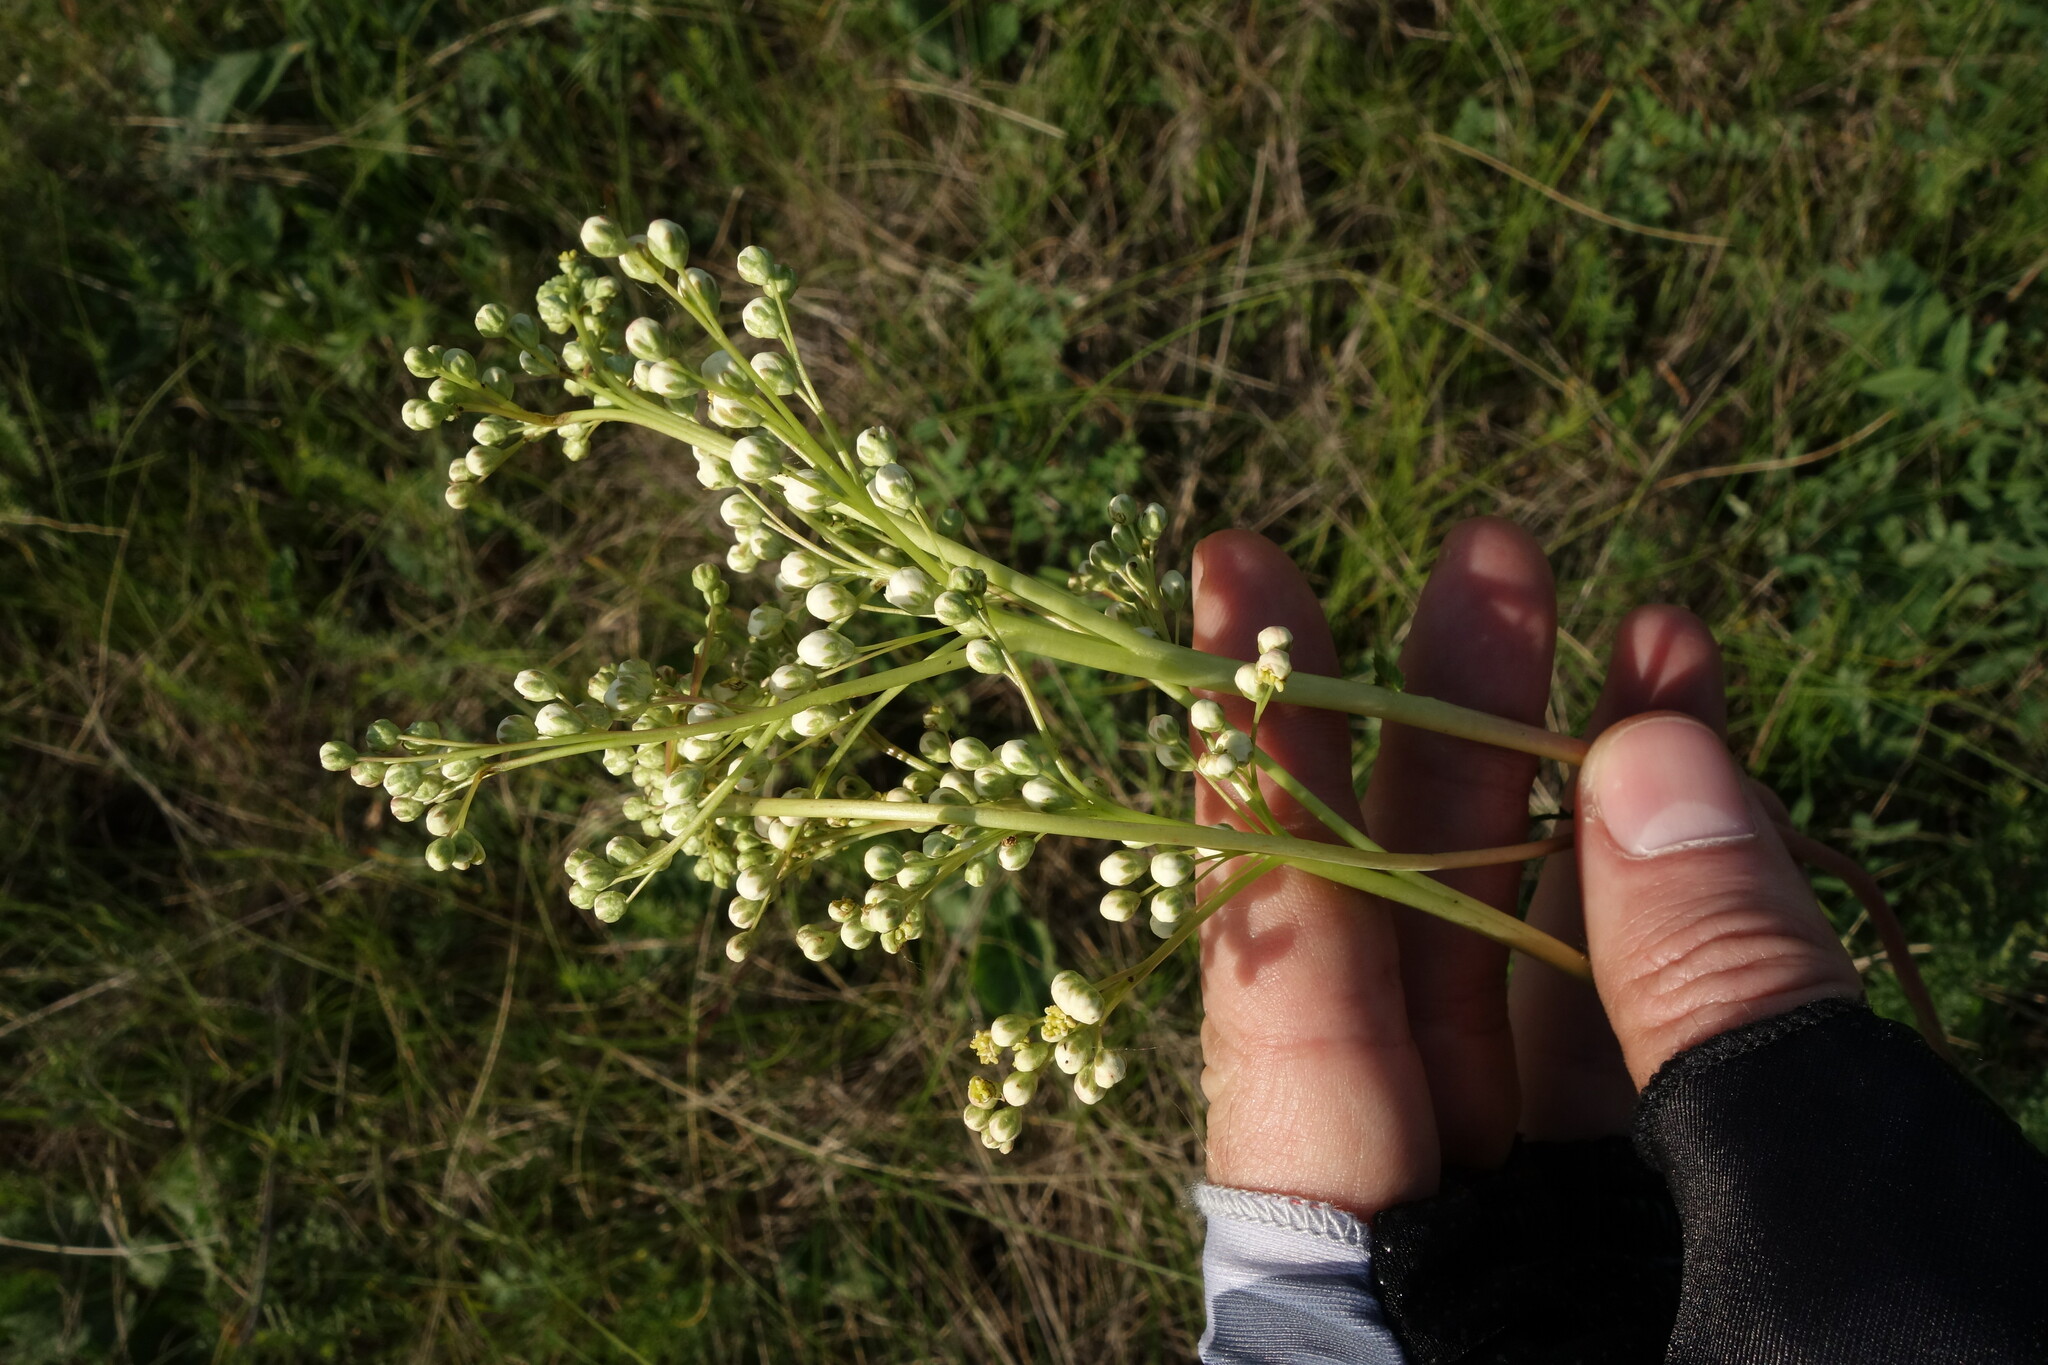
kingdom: Plantae
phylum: Tracheophyta
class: Magnoliopsida
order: Rosales
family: Rosaceae
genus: Filipendula
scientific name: Filipendula vulgaris
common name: Dropwort
